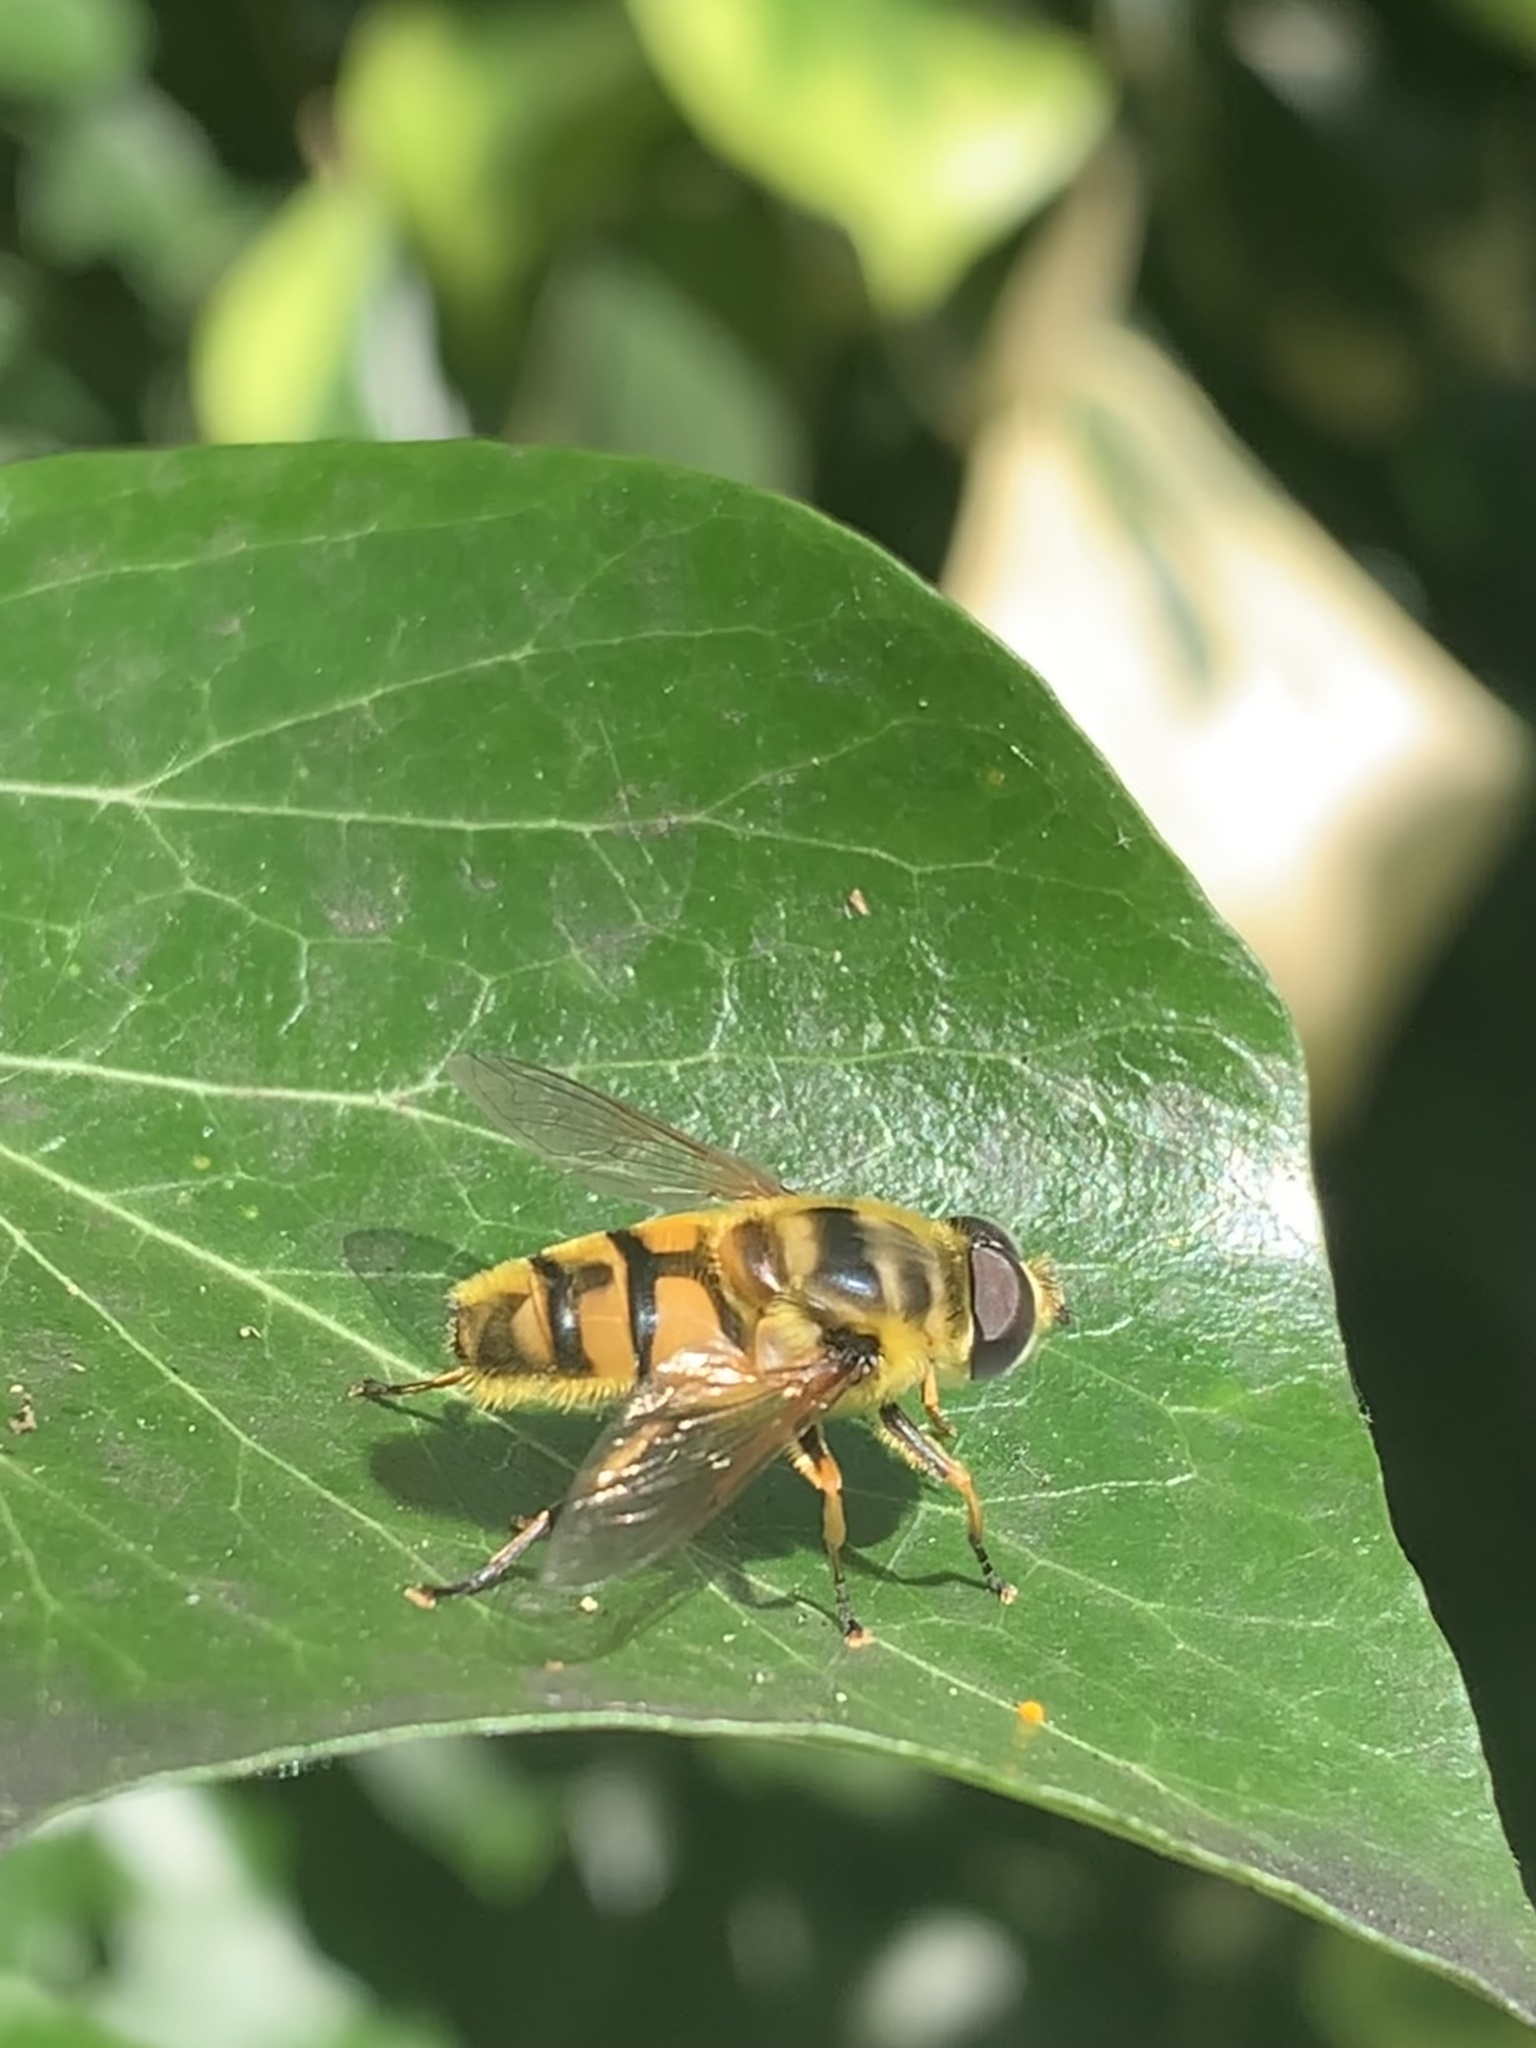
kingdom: Animalia
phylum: Arthropoda
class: Insecta
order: Diptera
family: Syrphidae
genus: Myathropa
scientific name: Myathropa florea
